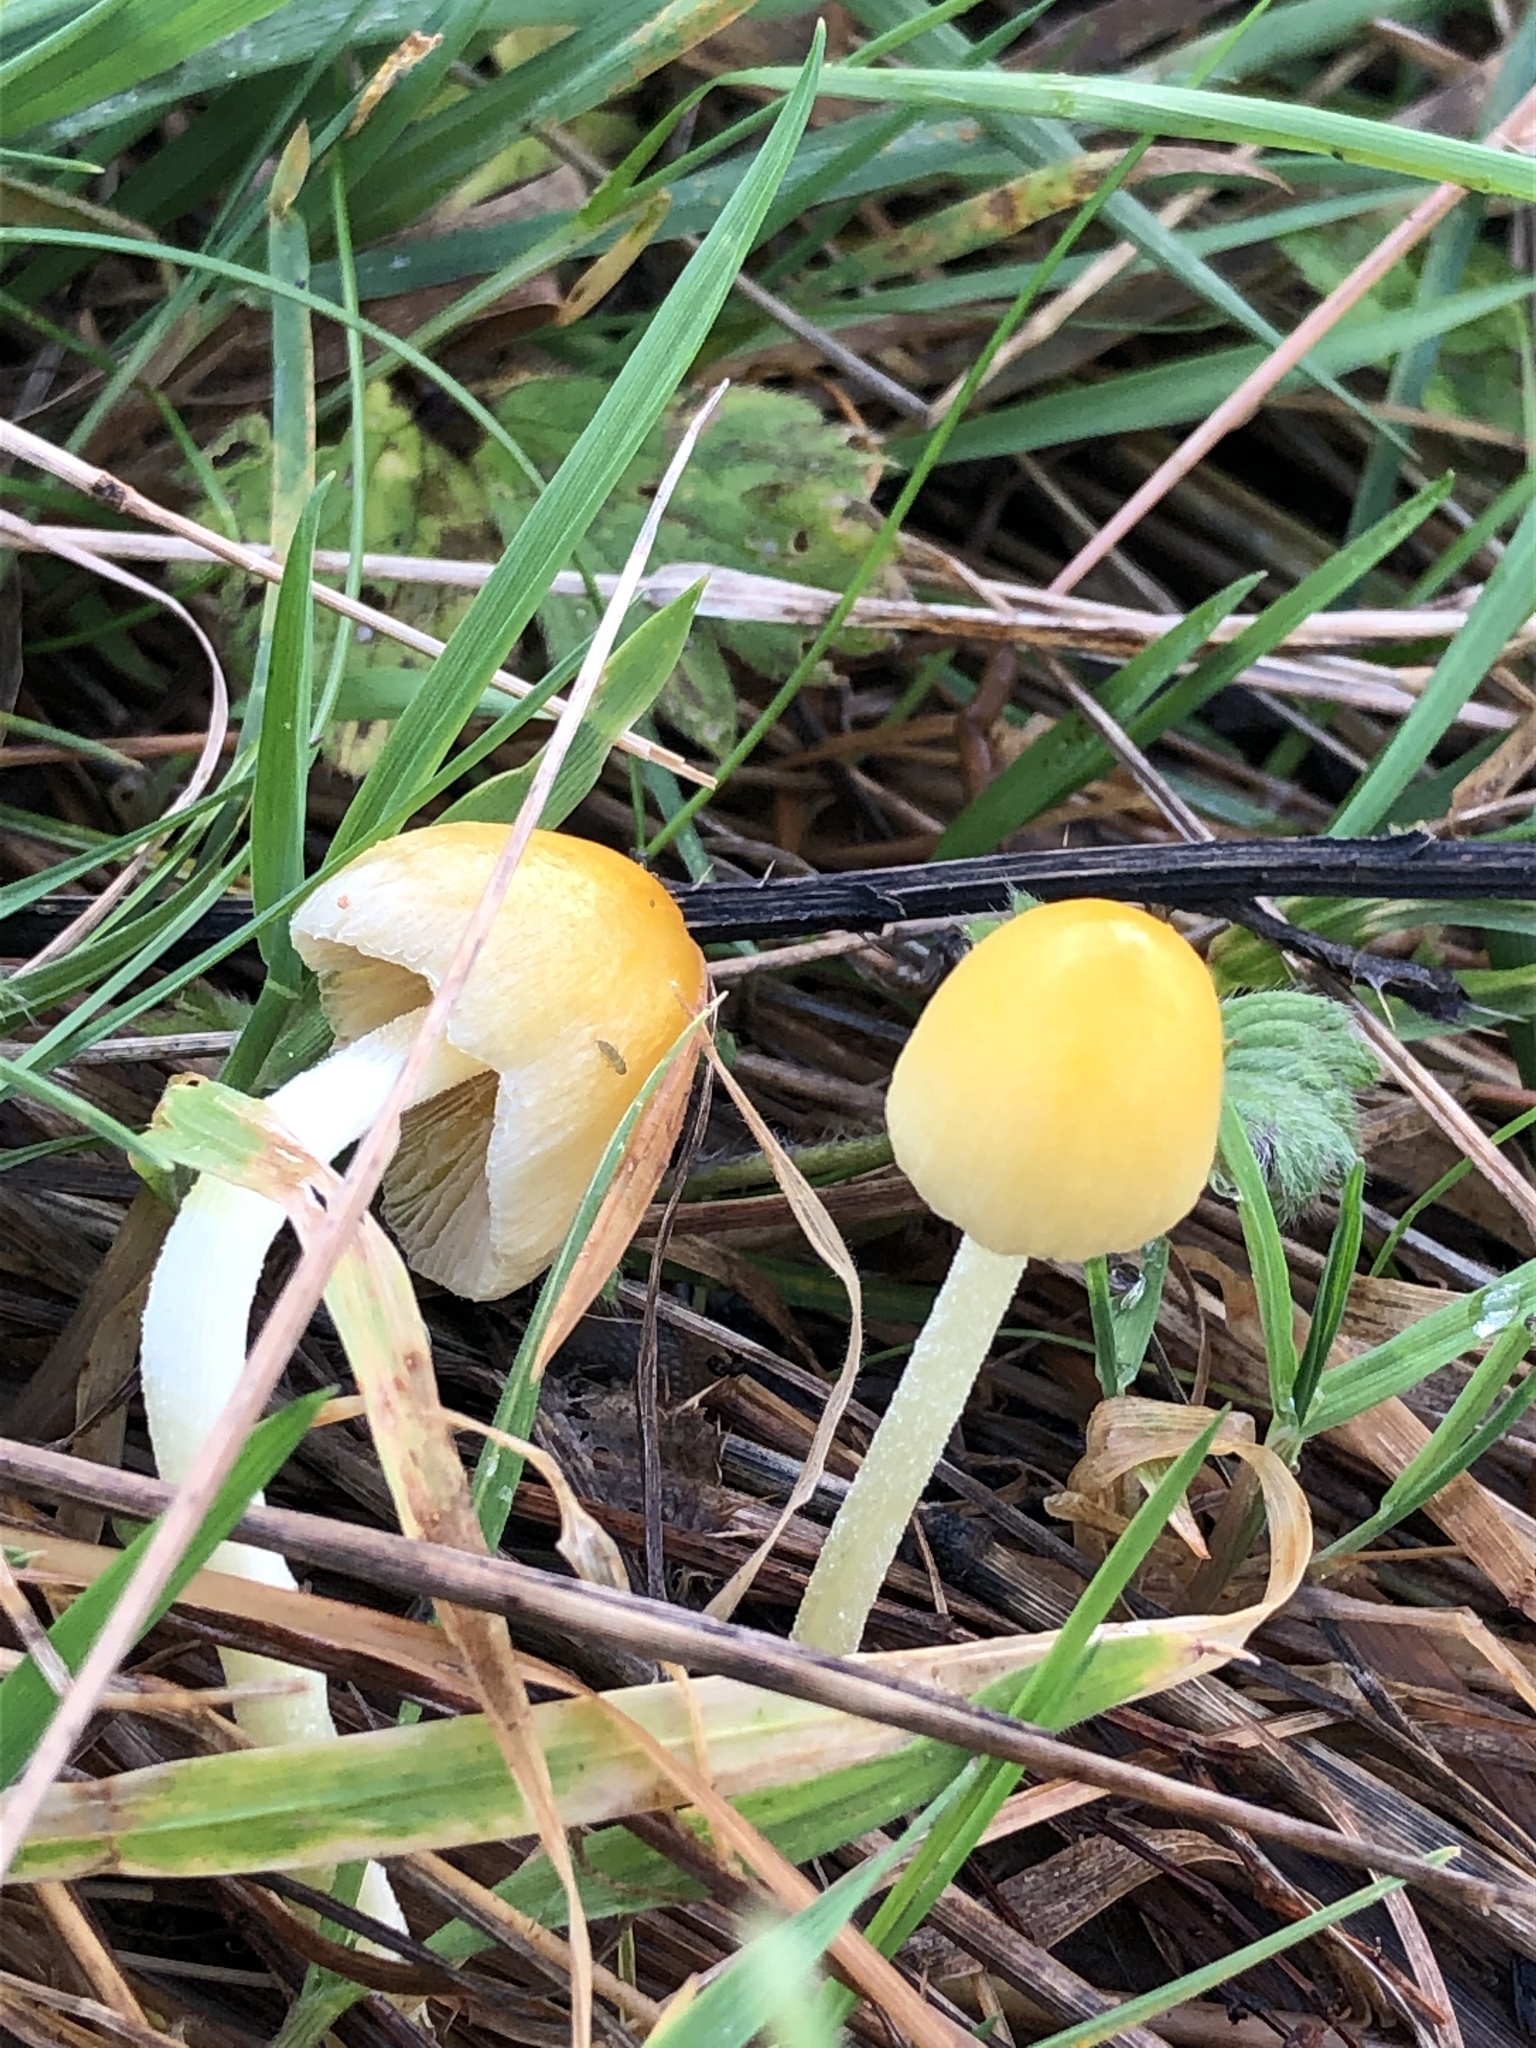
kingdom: Fungi
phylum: Basidiomycota
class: Agaricomycetes
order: Agaricales
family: Bolbitiaceae
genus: Bolbitius
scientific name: Bolbitius titubans
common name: Yellow fieldcap
